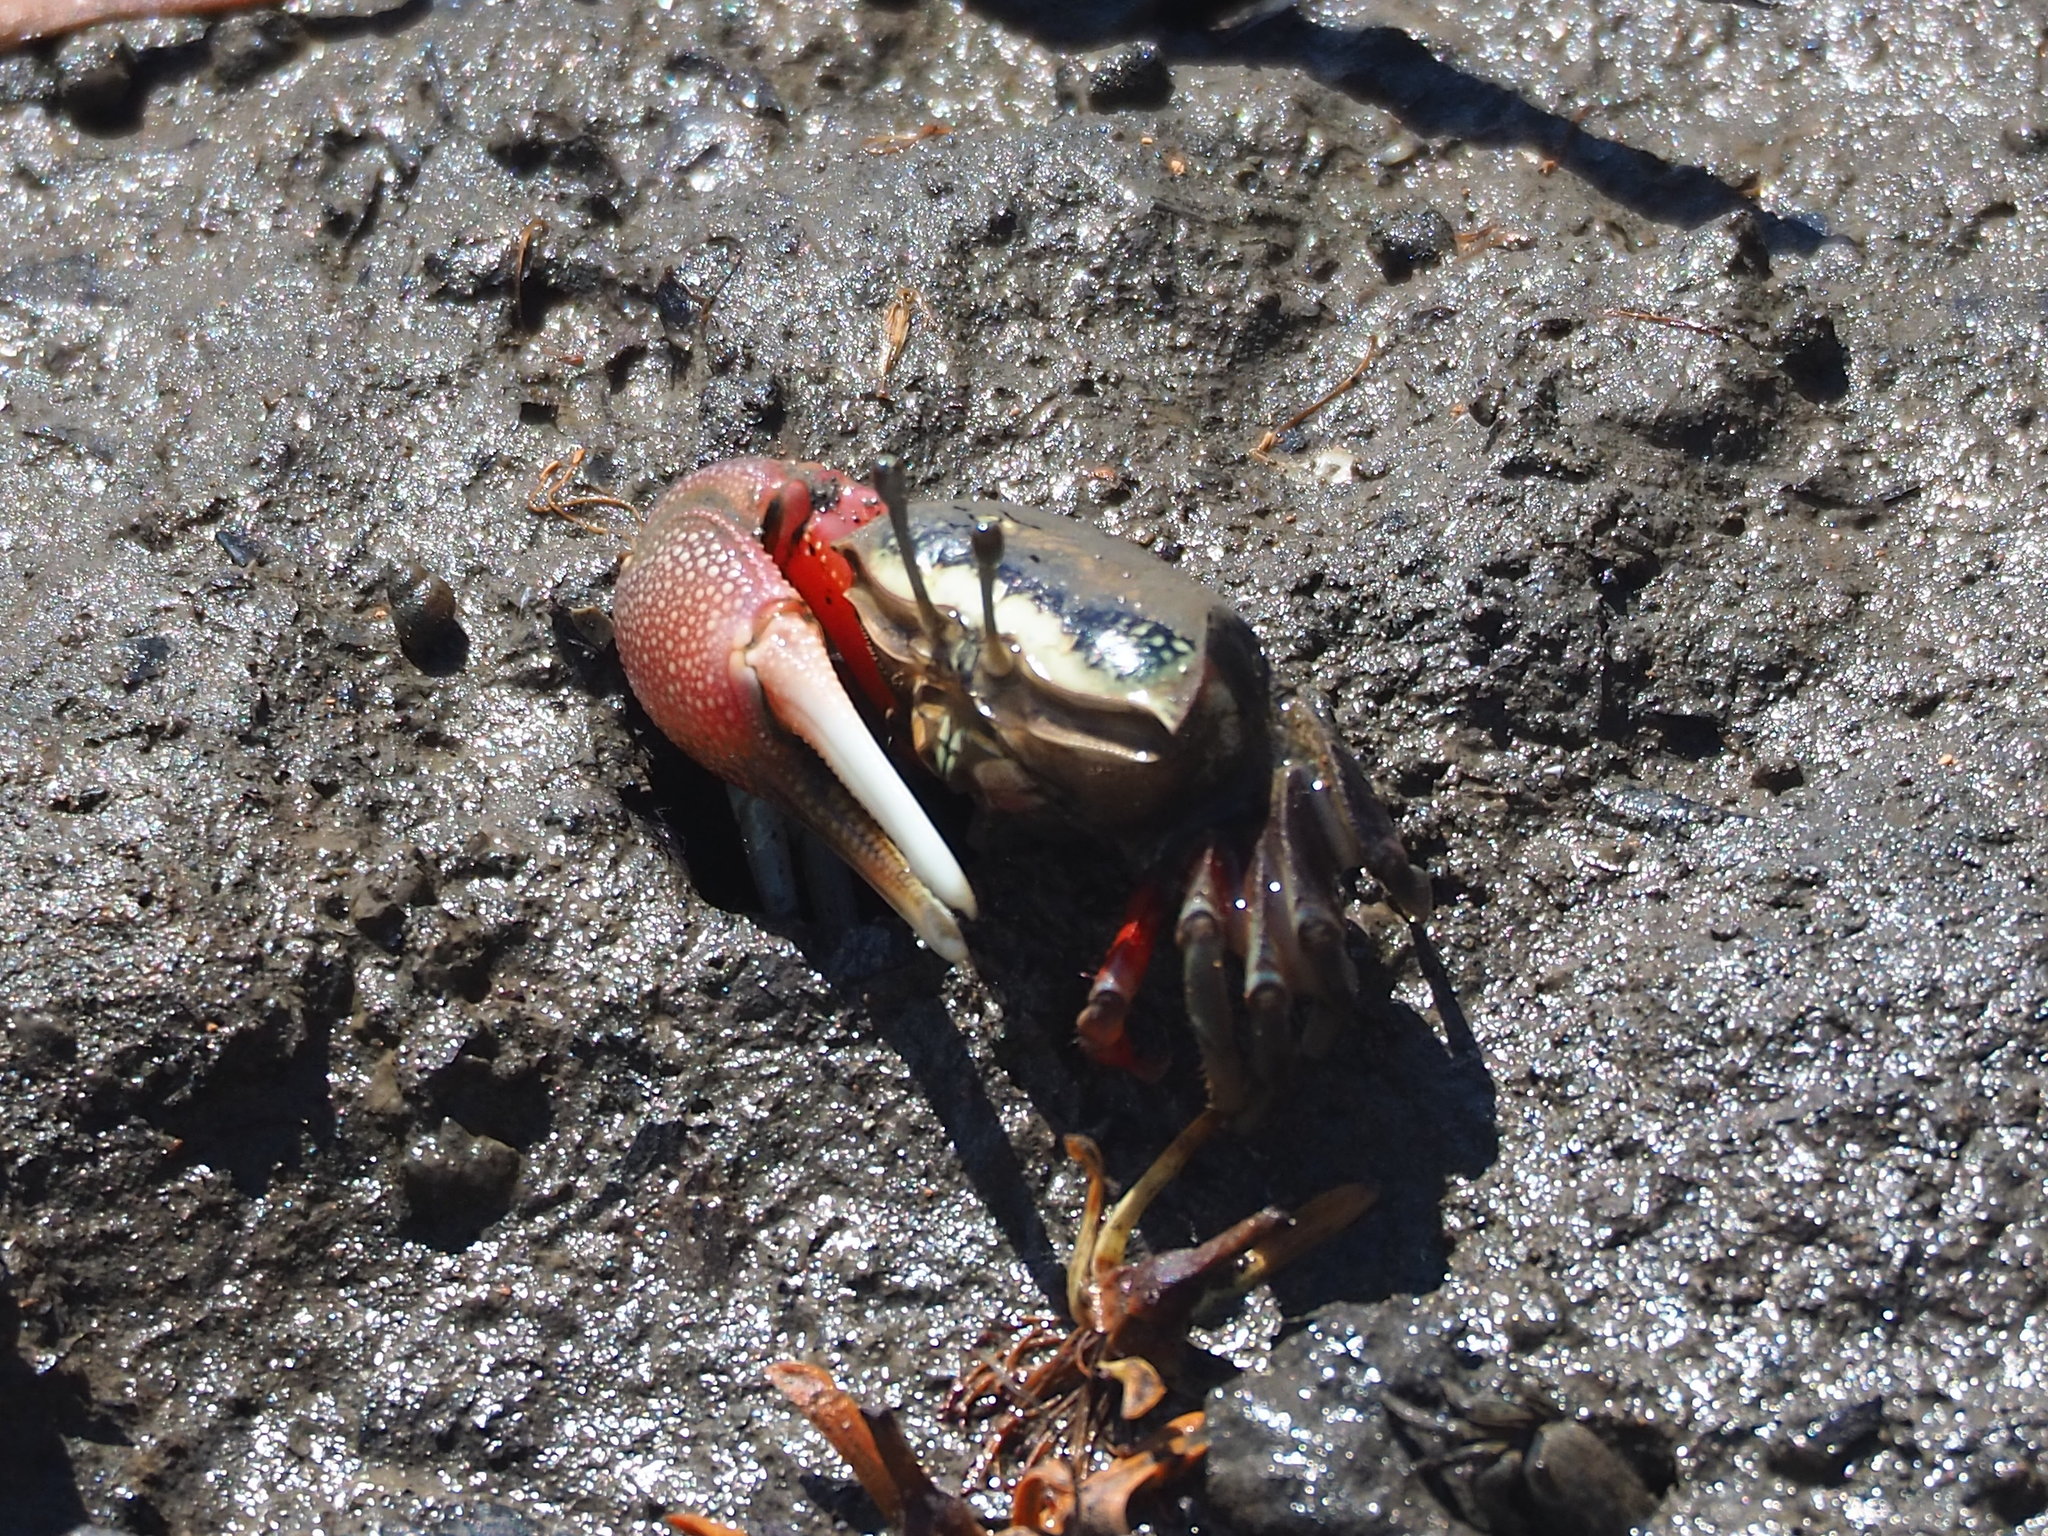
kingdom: Animalia
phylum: Arthropoda
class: Malacostraca
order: Decapoda
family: Ocypodidae
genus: Tubuca
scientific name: Tubuca arcuata
